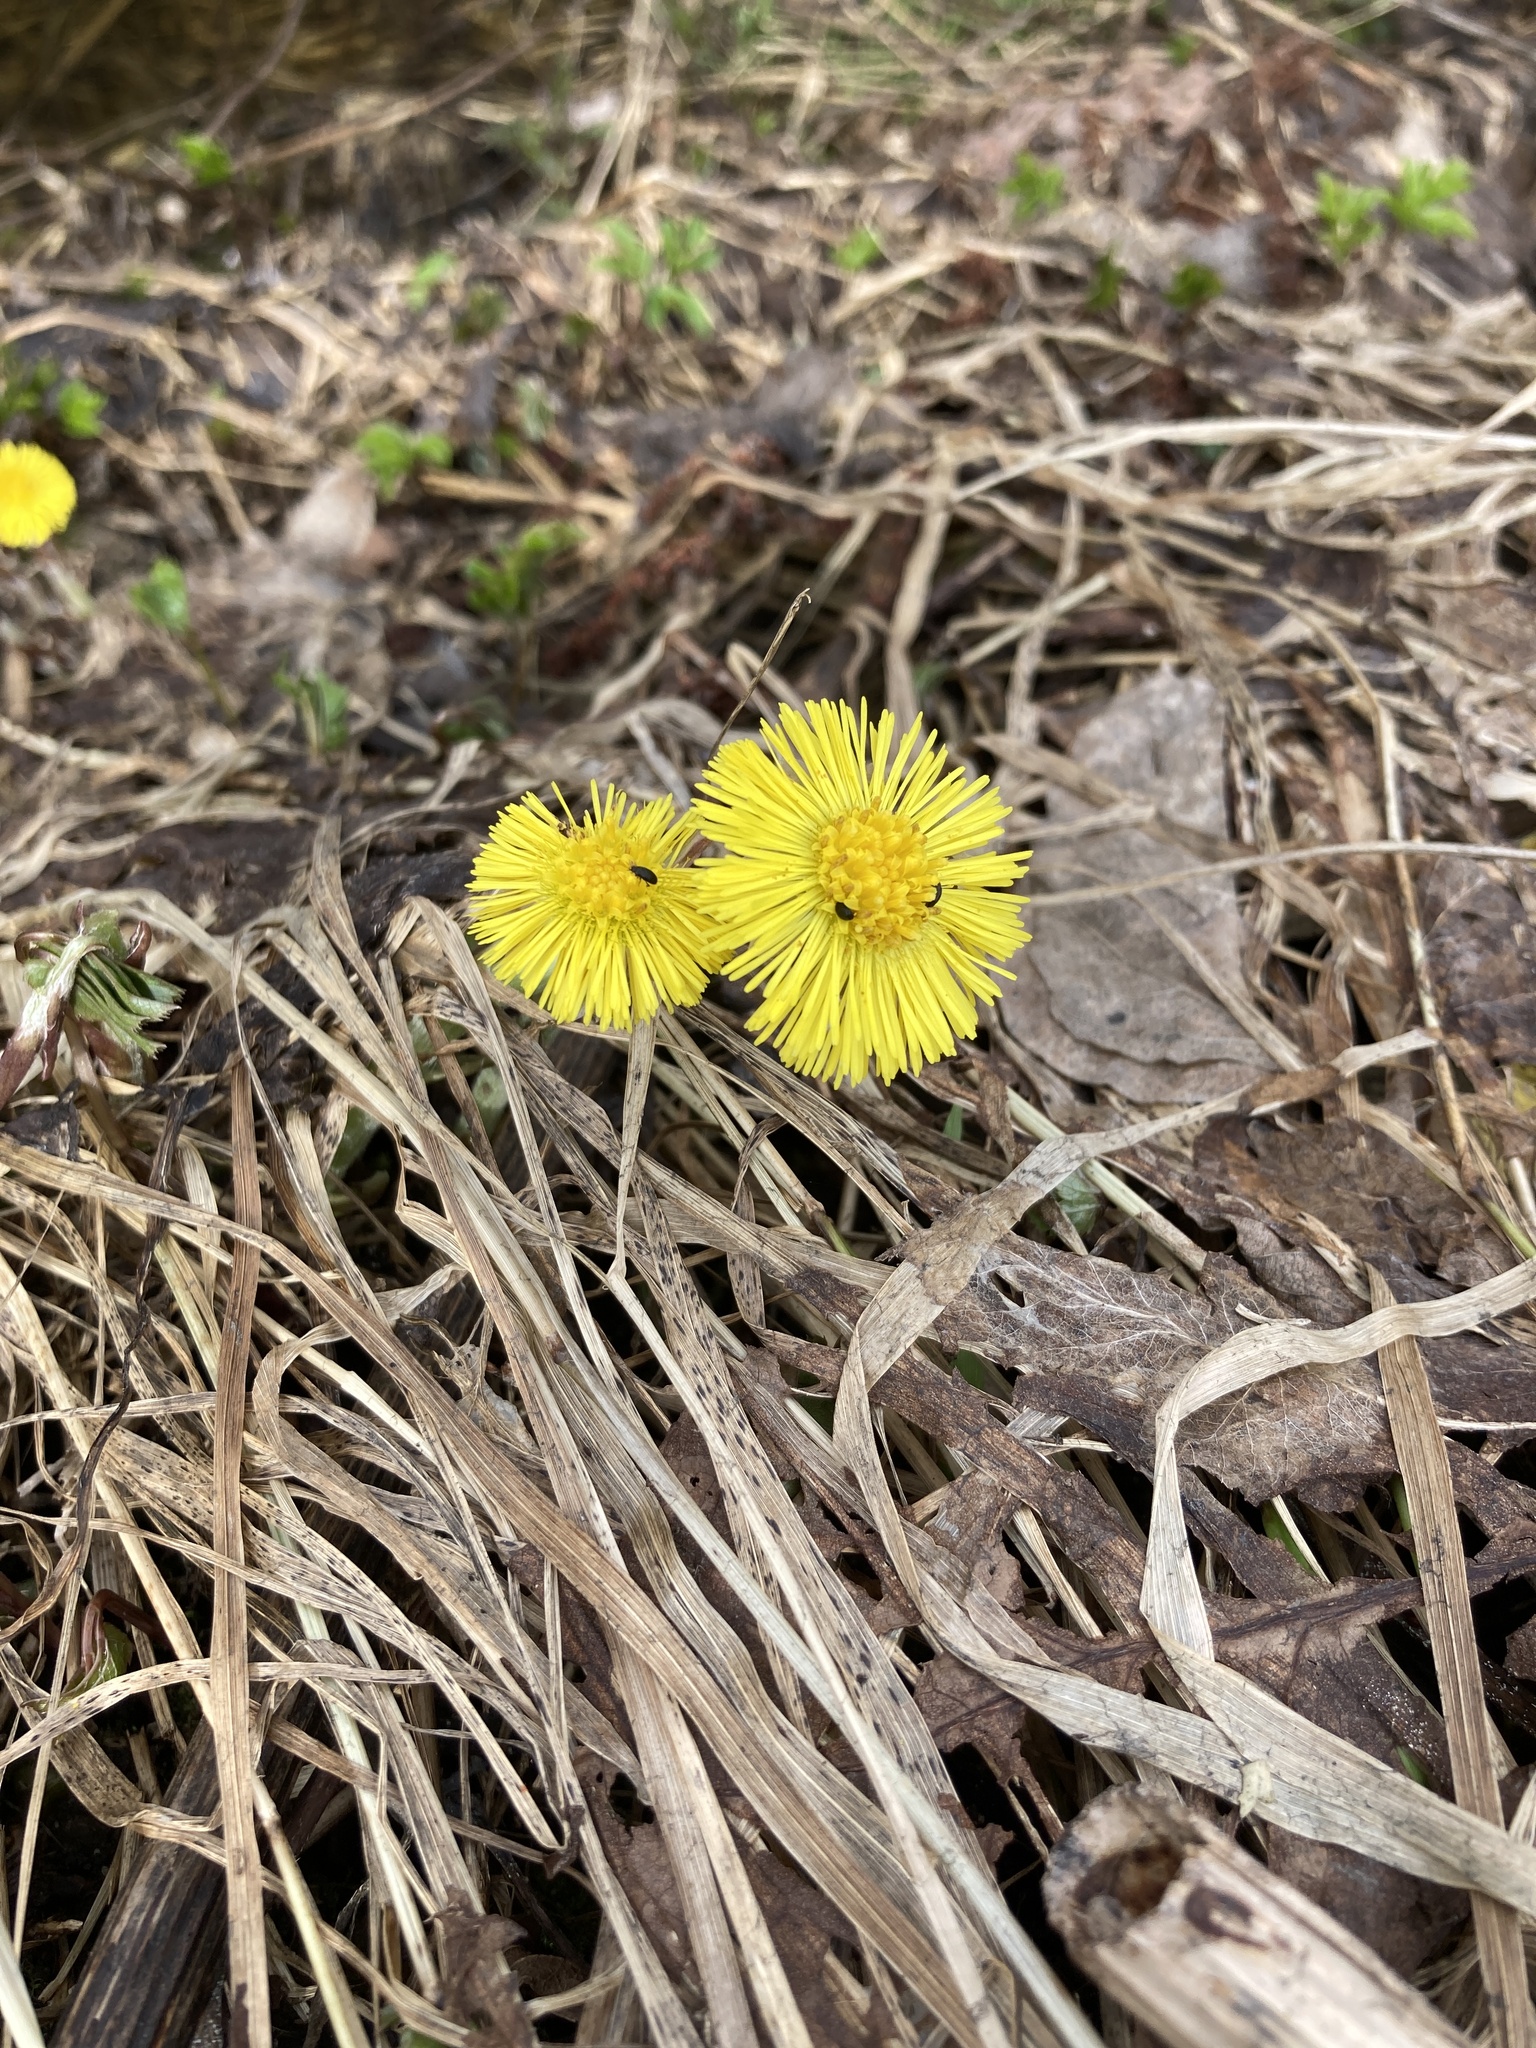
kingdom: Plantae
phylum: Tracheophyta
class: Magnoliopsida
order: Asterales
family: Asteraceae
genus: Tussilago
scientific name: Tussilago farfara
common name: Coltsfoot
